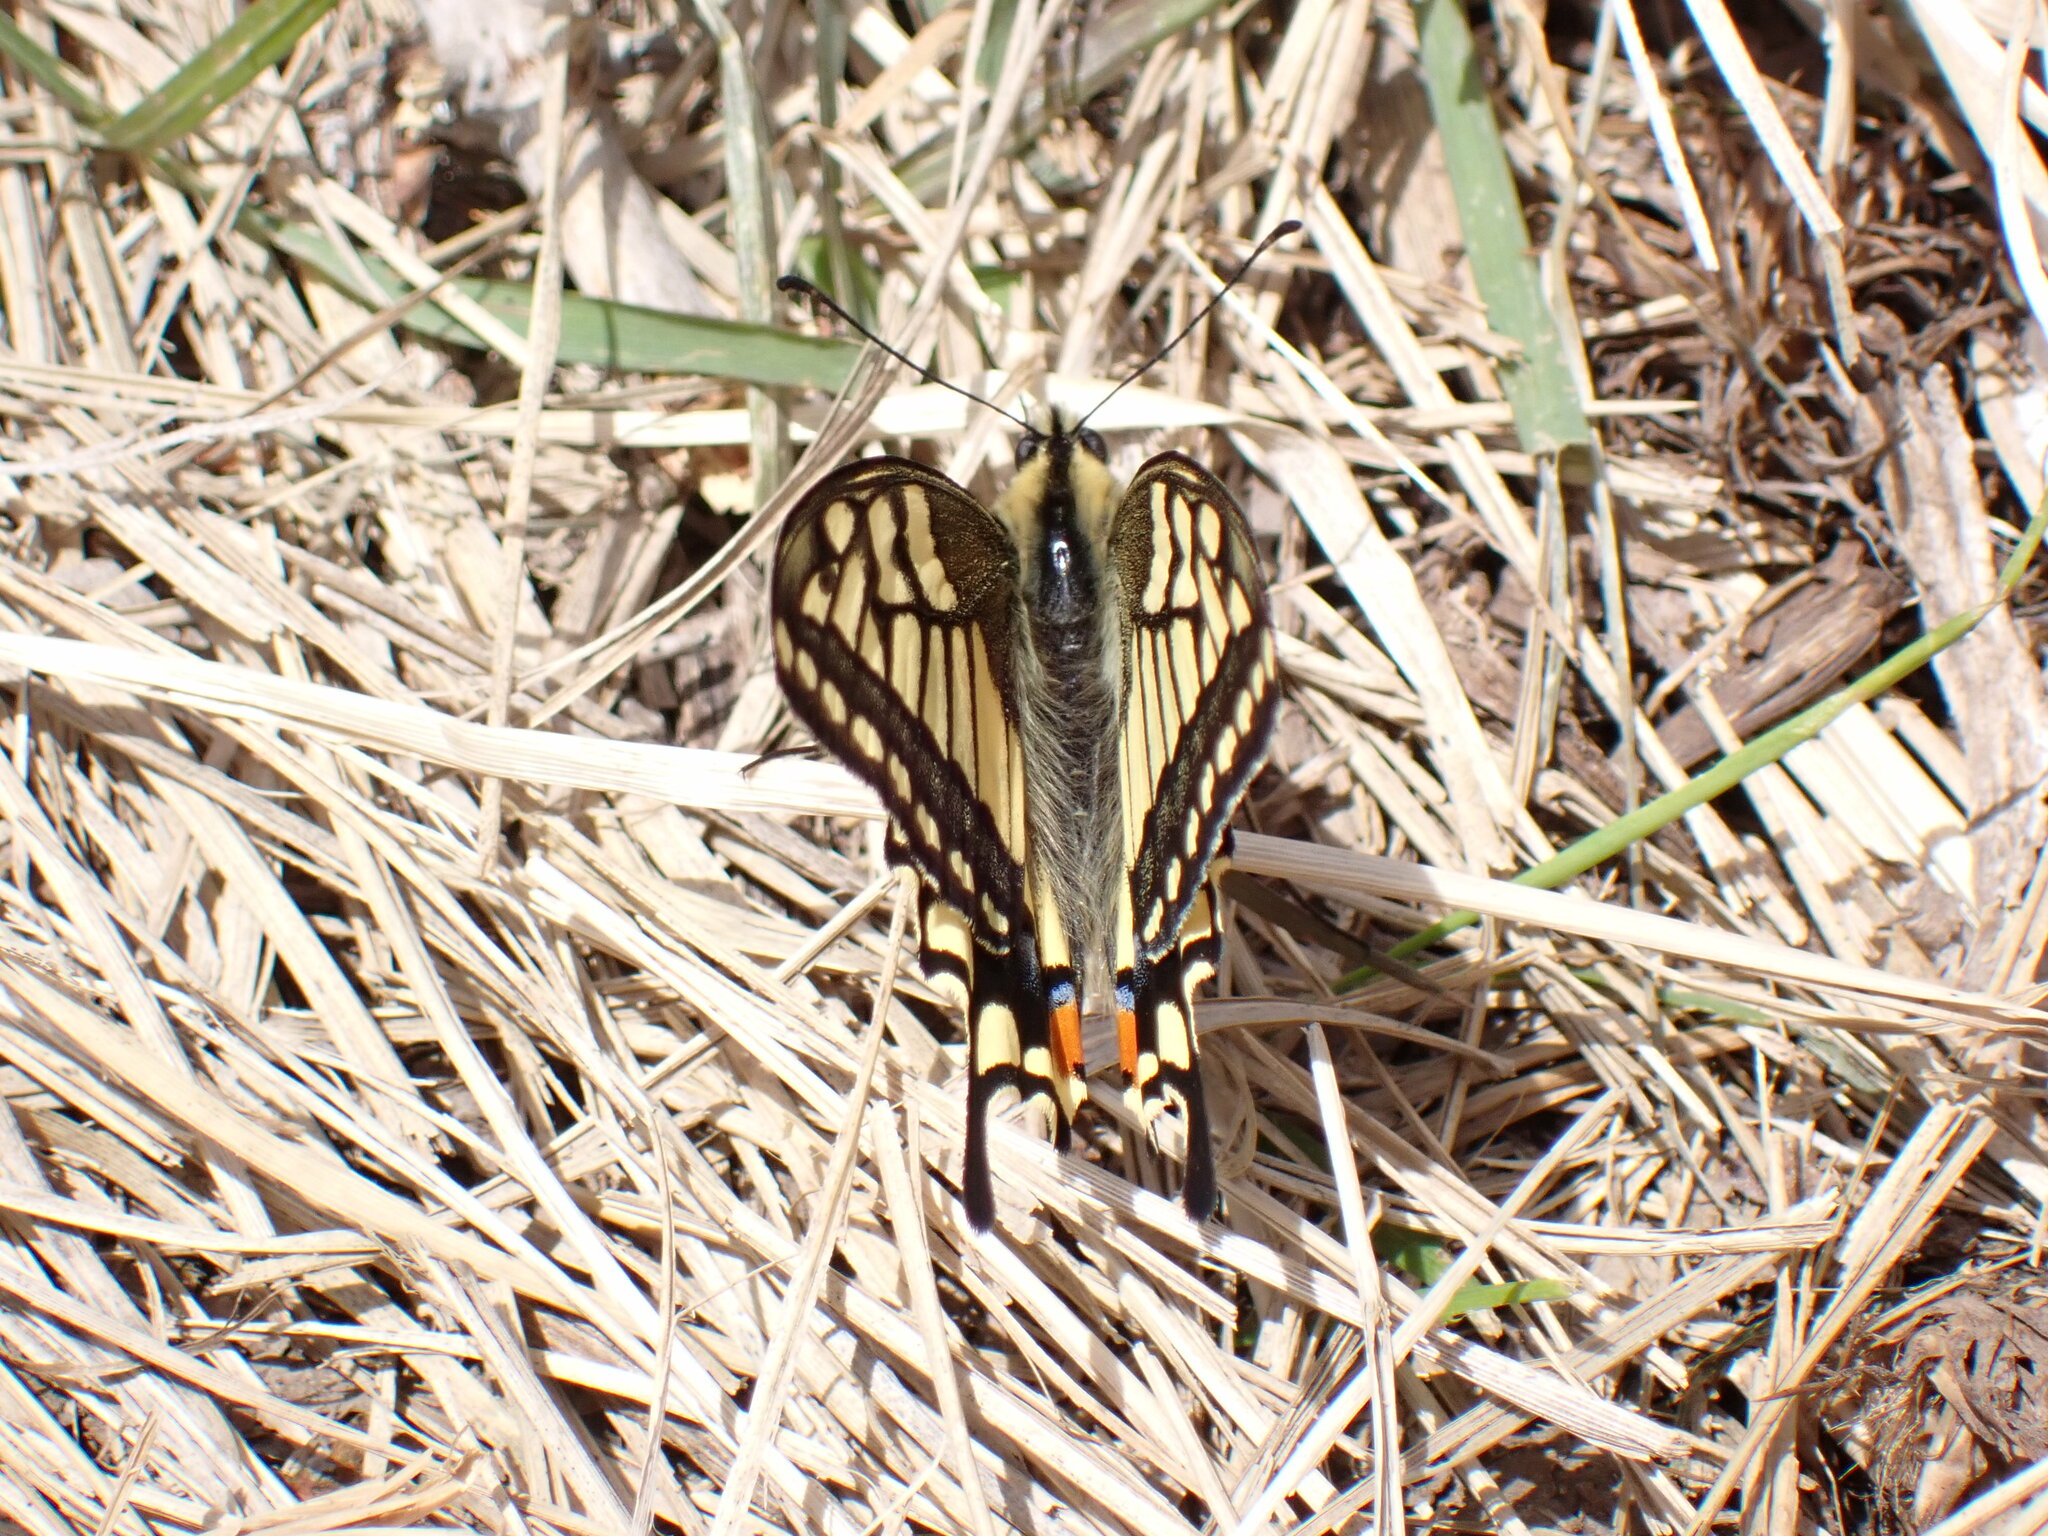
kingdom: Animalia
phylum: Arthropoda
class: Insecta
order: Lepidoptera
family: Papilionidae
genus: Papilio
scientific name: Papilio machaon
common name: Swallowtail
